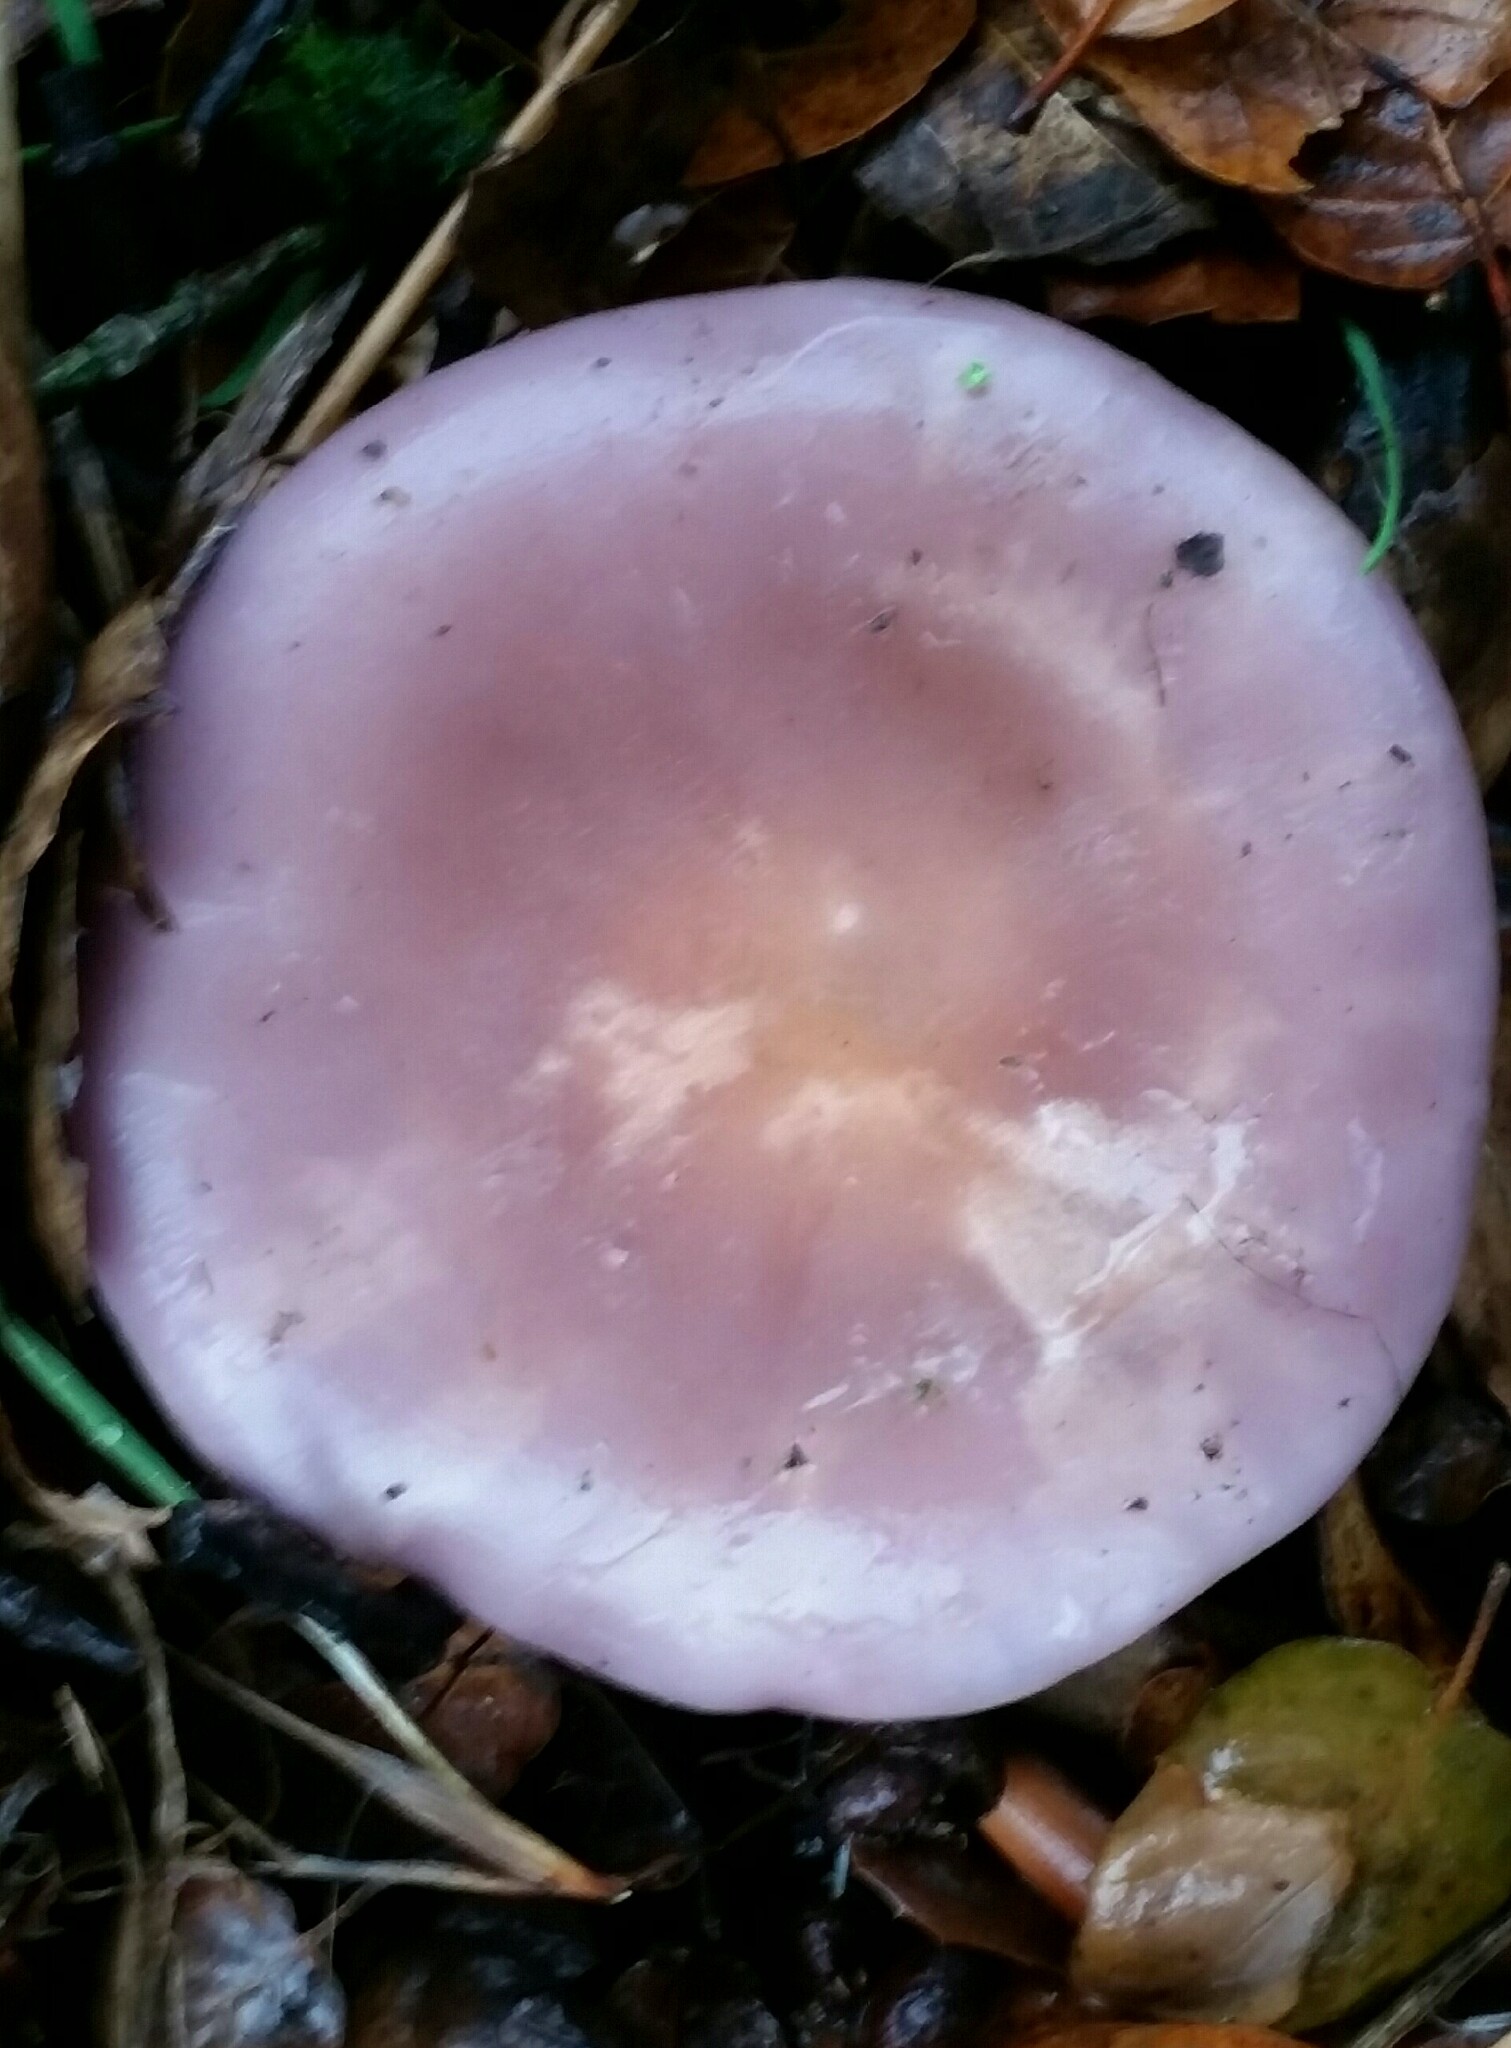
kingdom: Fungi
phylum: Basidiomycota
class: Agaricomycetes
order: Agaricales
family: Tricholomataceae
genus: Collybia
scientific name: Collybia
